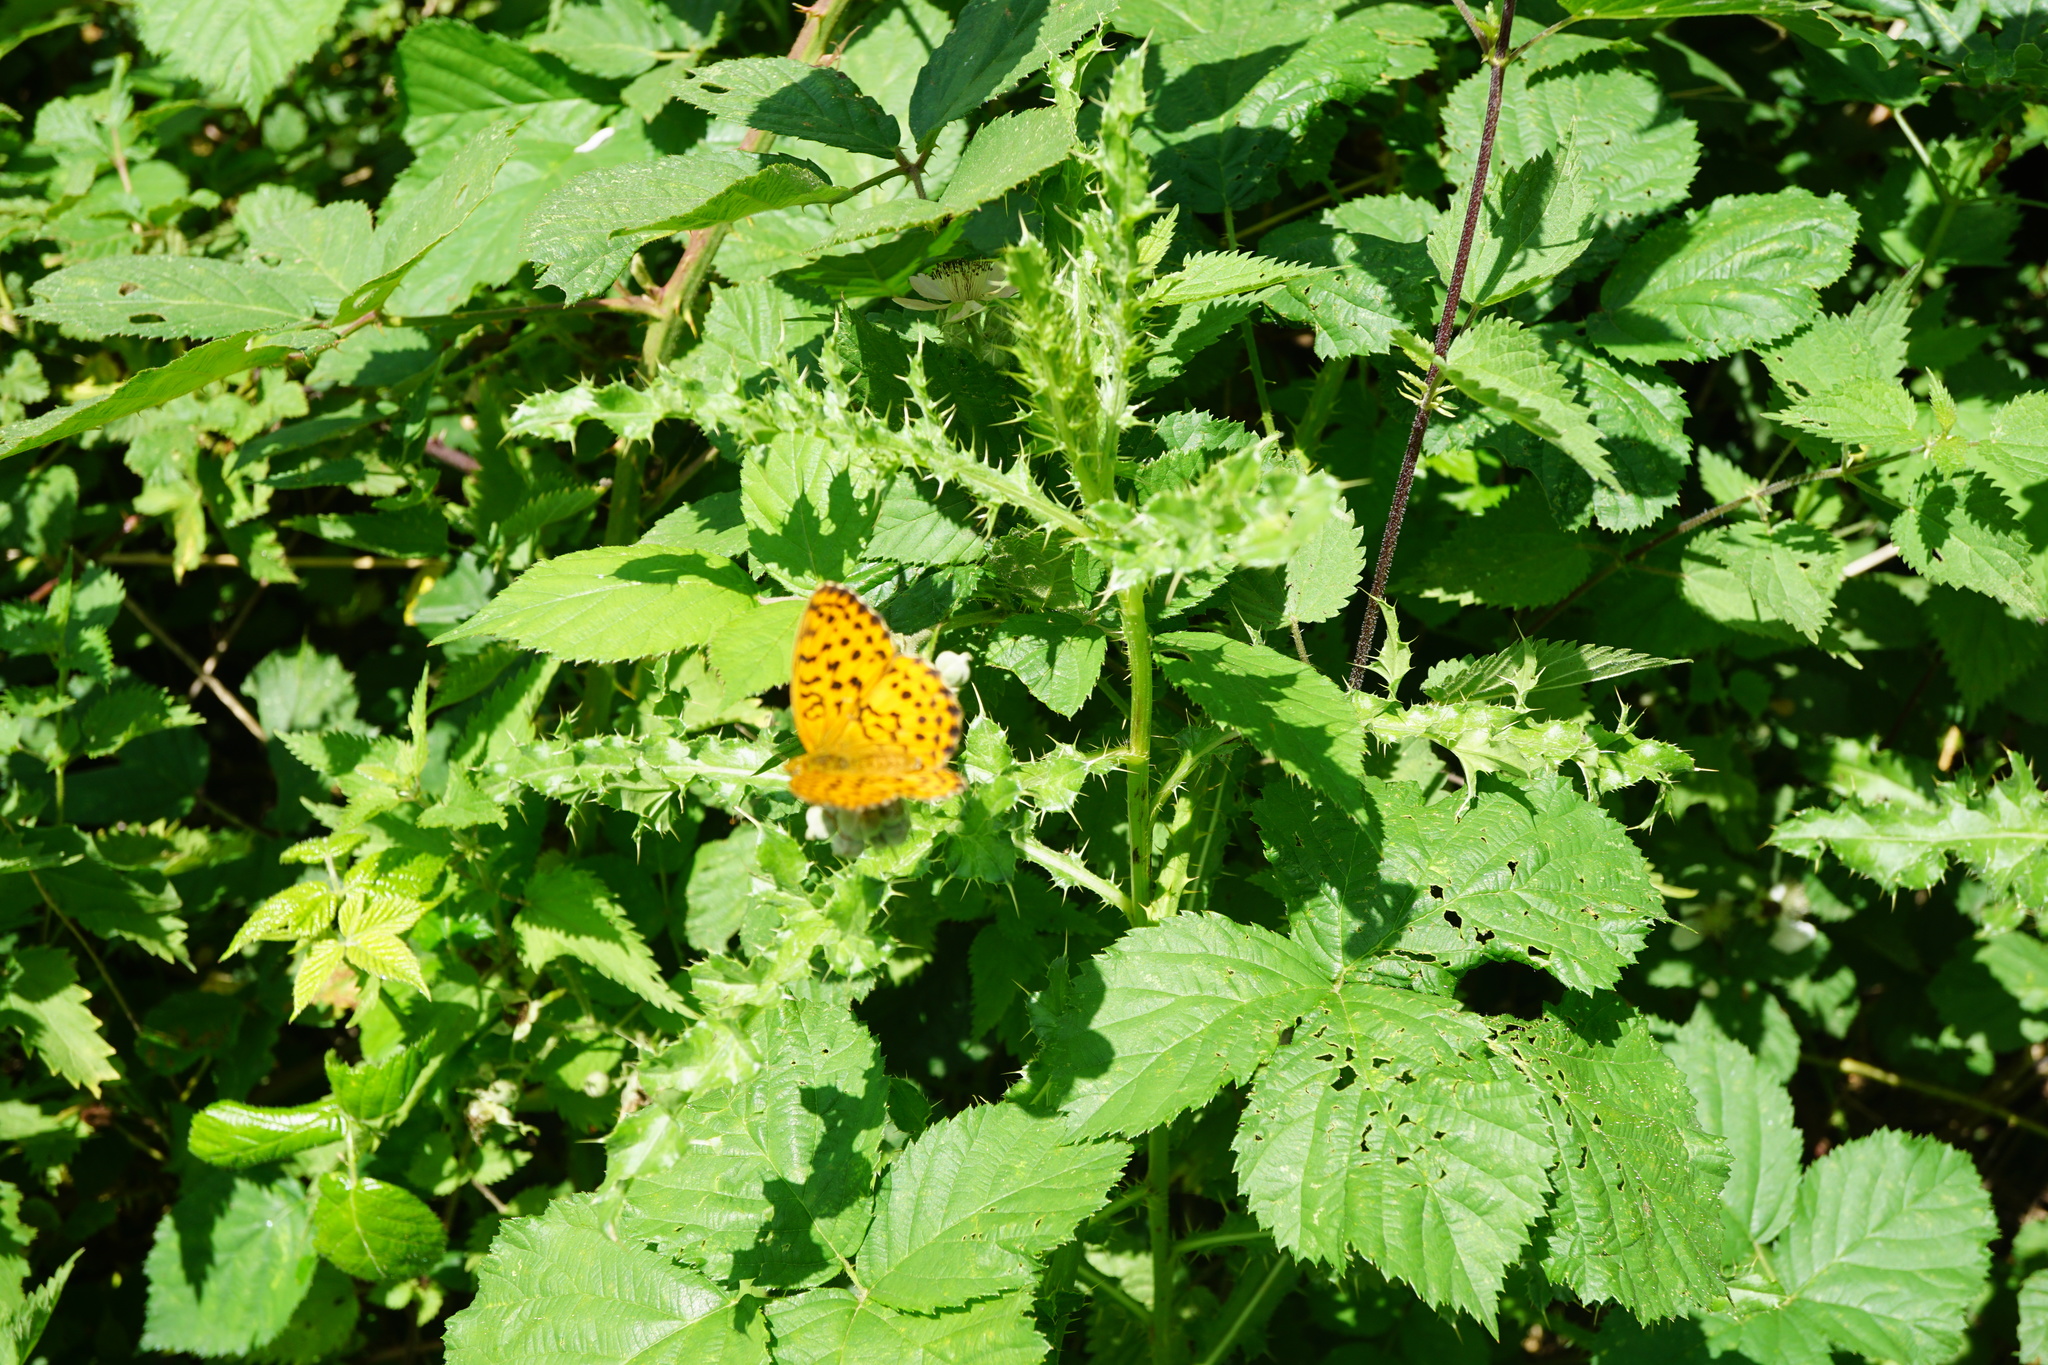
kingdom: Animalia
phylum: Arthropoda
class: Insecta
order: Lepidoptera
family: Nymphalidae
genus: Brenthis
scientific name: Brenthis daphne
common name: Marbled fritillary
